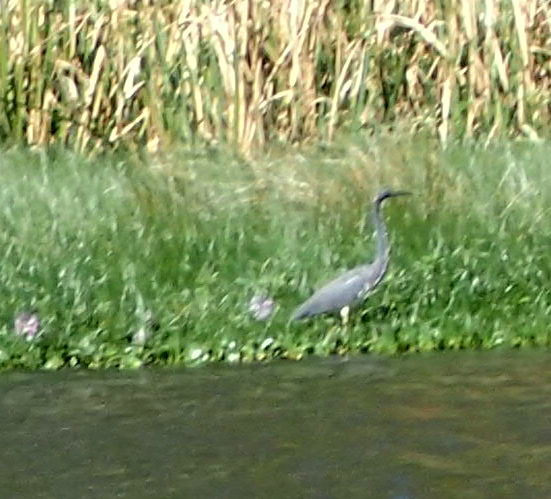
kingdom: Animalia
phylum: Chordata
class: Aves
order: Pelecaniformes
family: Ardeidae
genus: Egretta
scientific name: Egretta tricolor
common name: Tricolored heron
